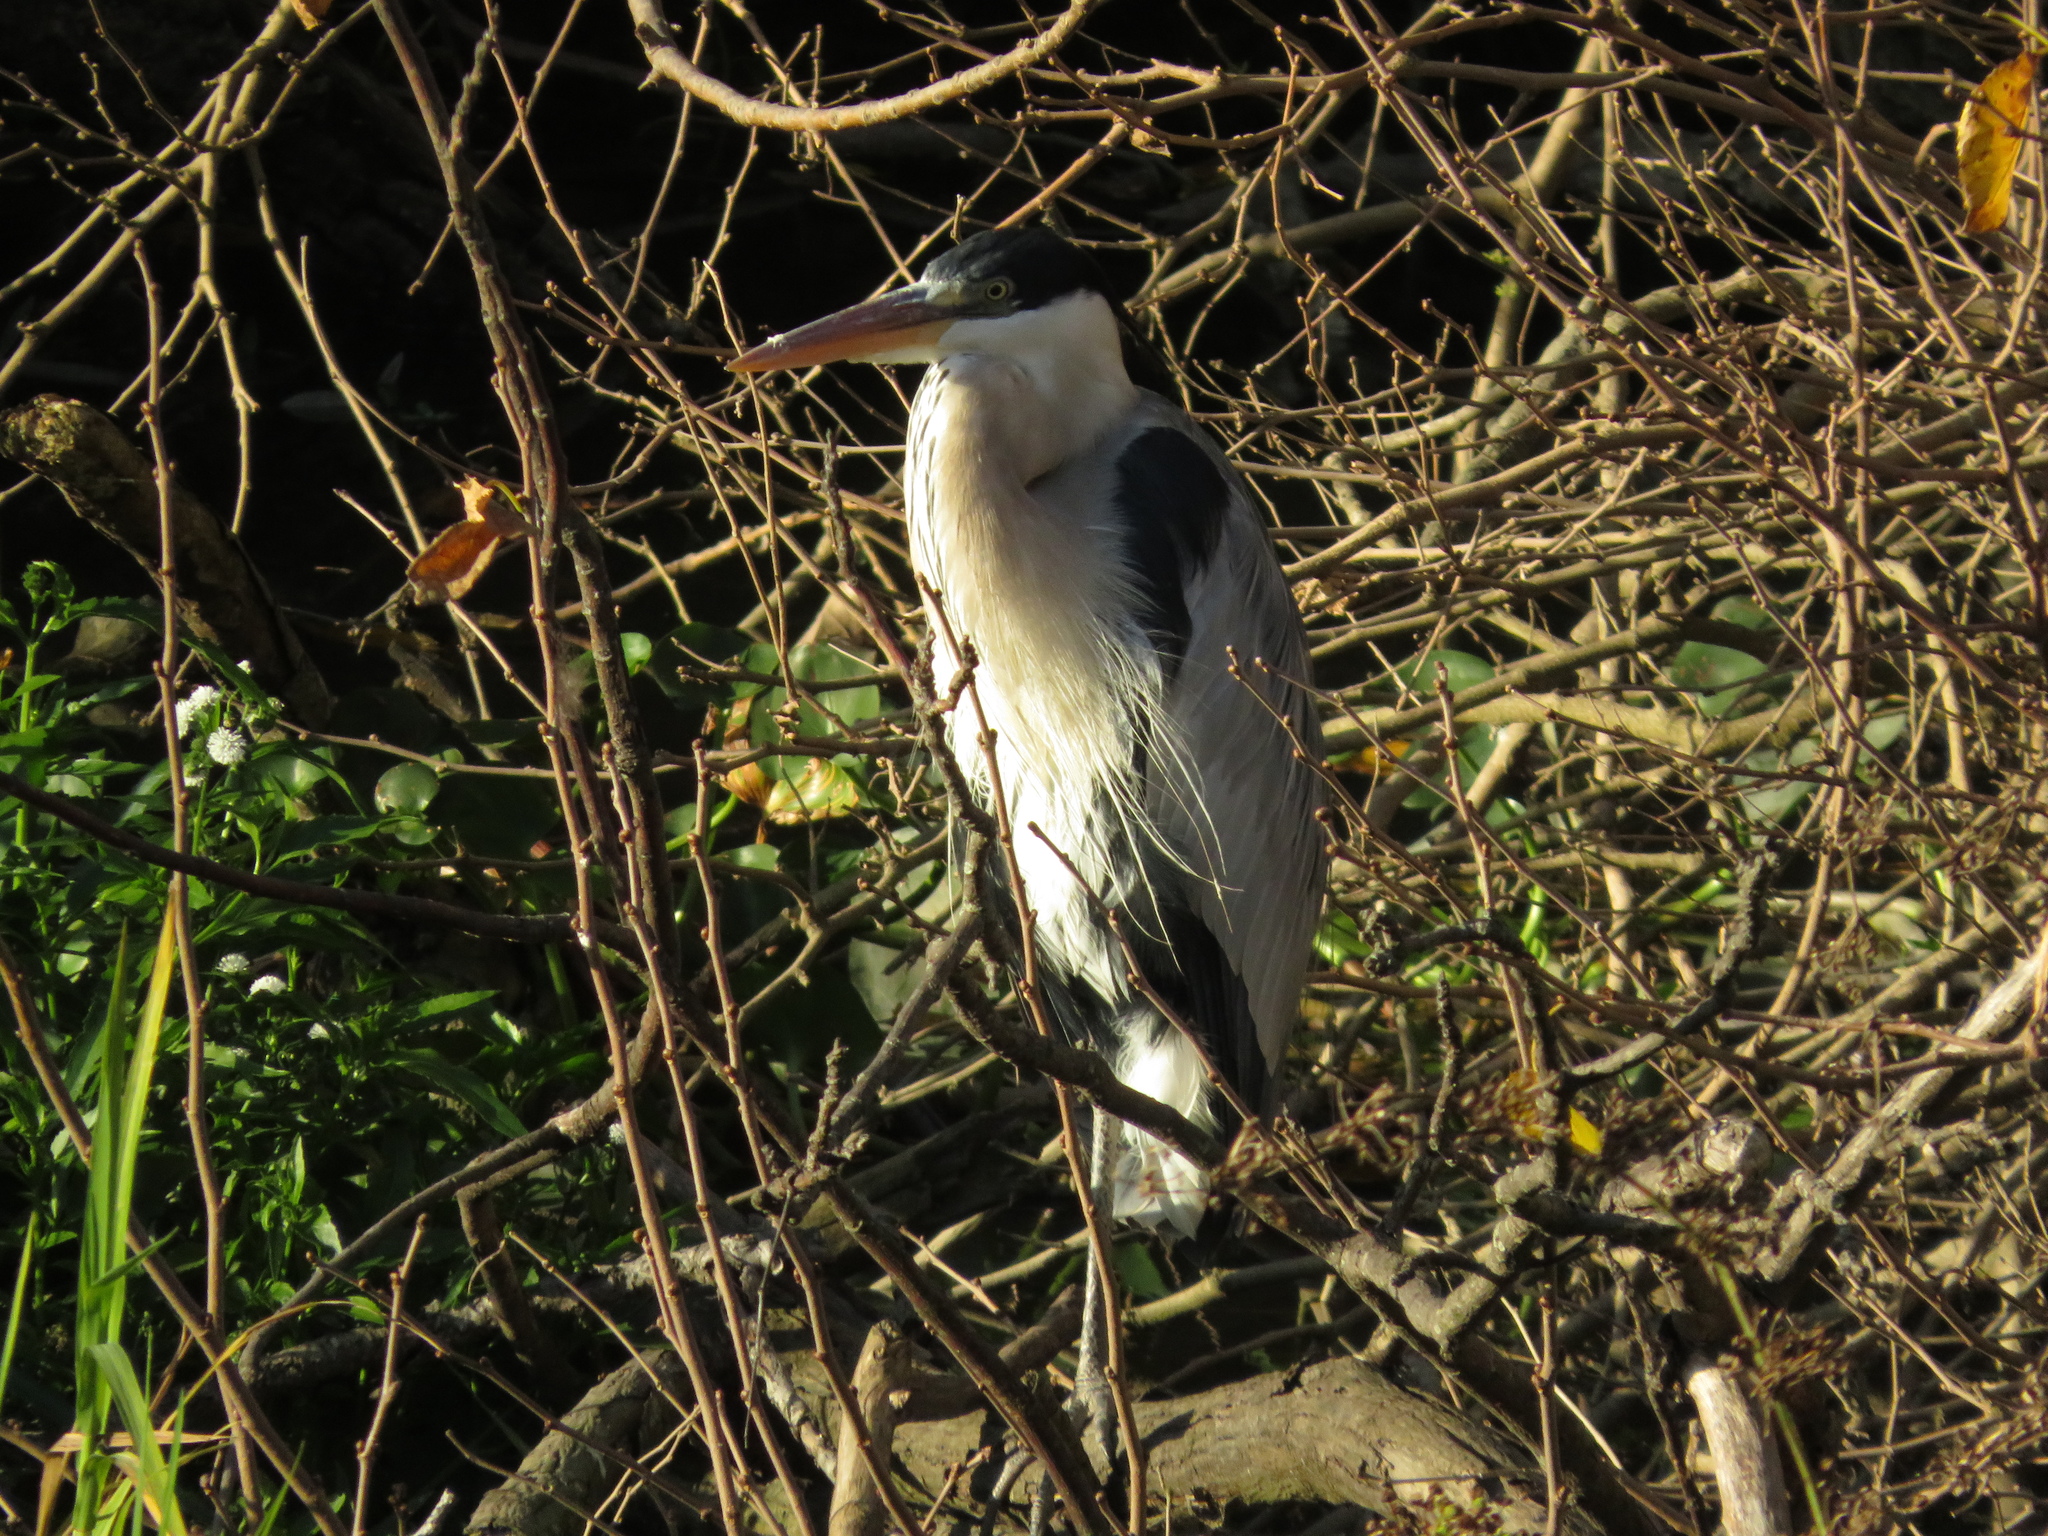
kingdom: Animalia
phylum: Chordata
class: Aves
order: Pelecaniformes
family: Ardeidae
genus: Ardea
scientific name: Ardea cocoi
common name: Cocoi heron
